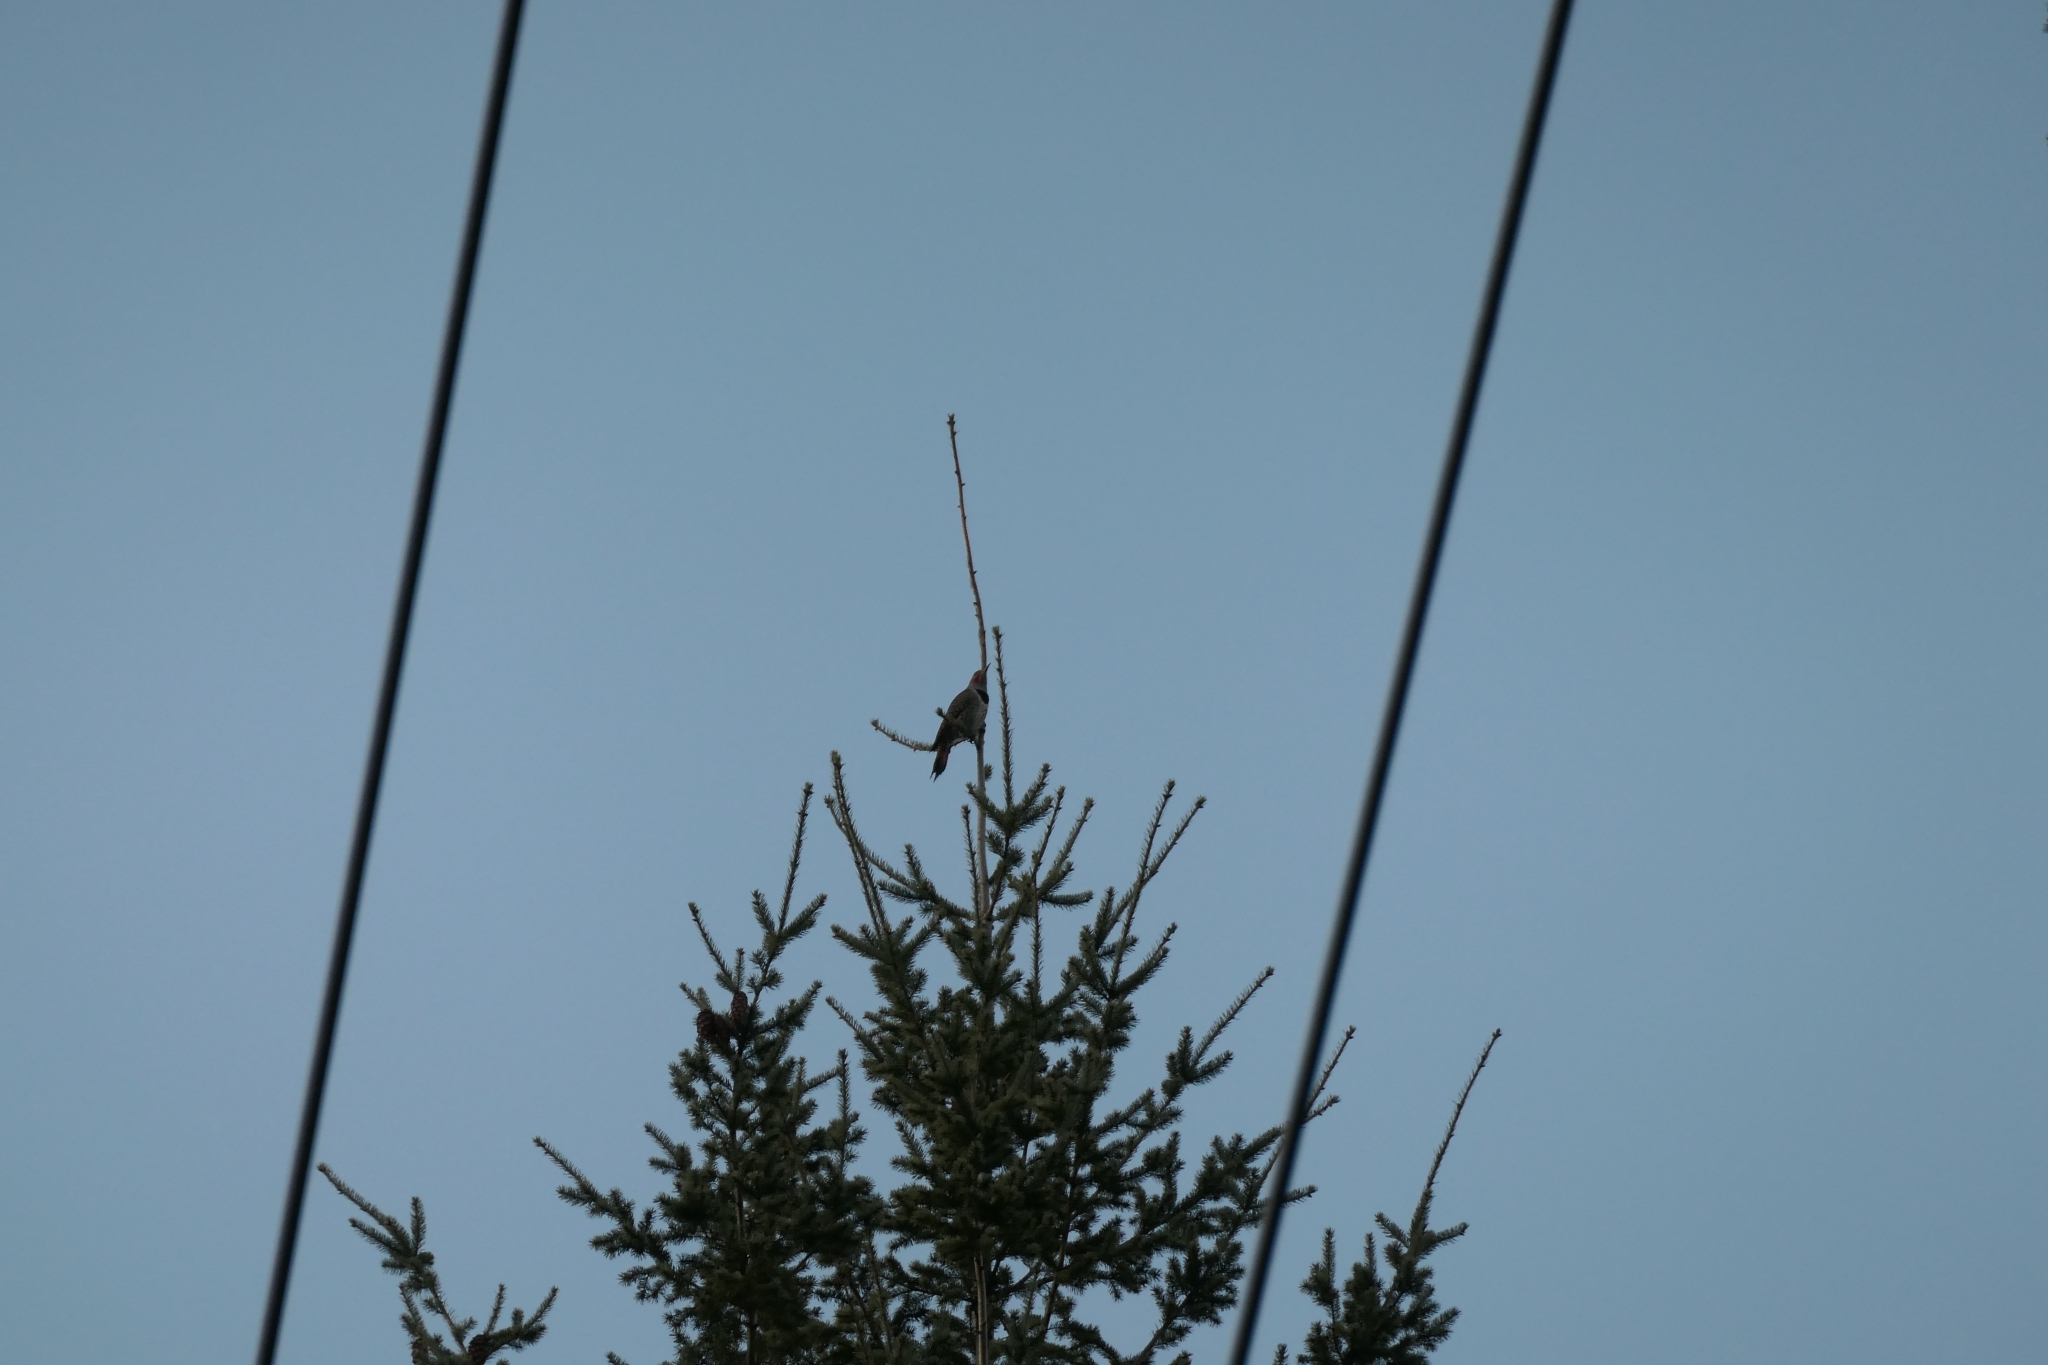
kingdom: Animalia
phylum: Chordata
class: Aves
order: Piciformes
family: Picidae
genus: Colaptes
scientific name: Colaptes auratus
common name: Northern flicker
